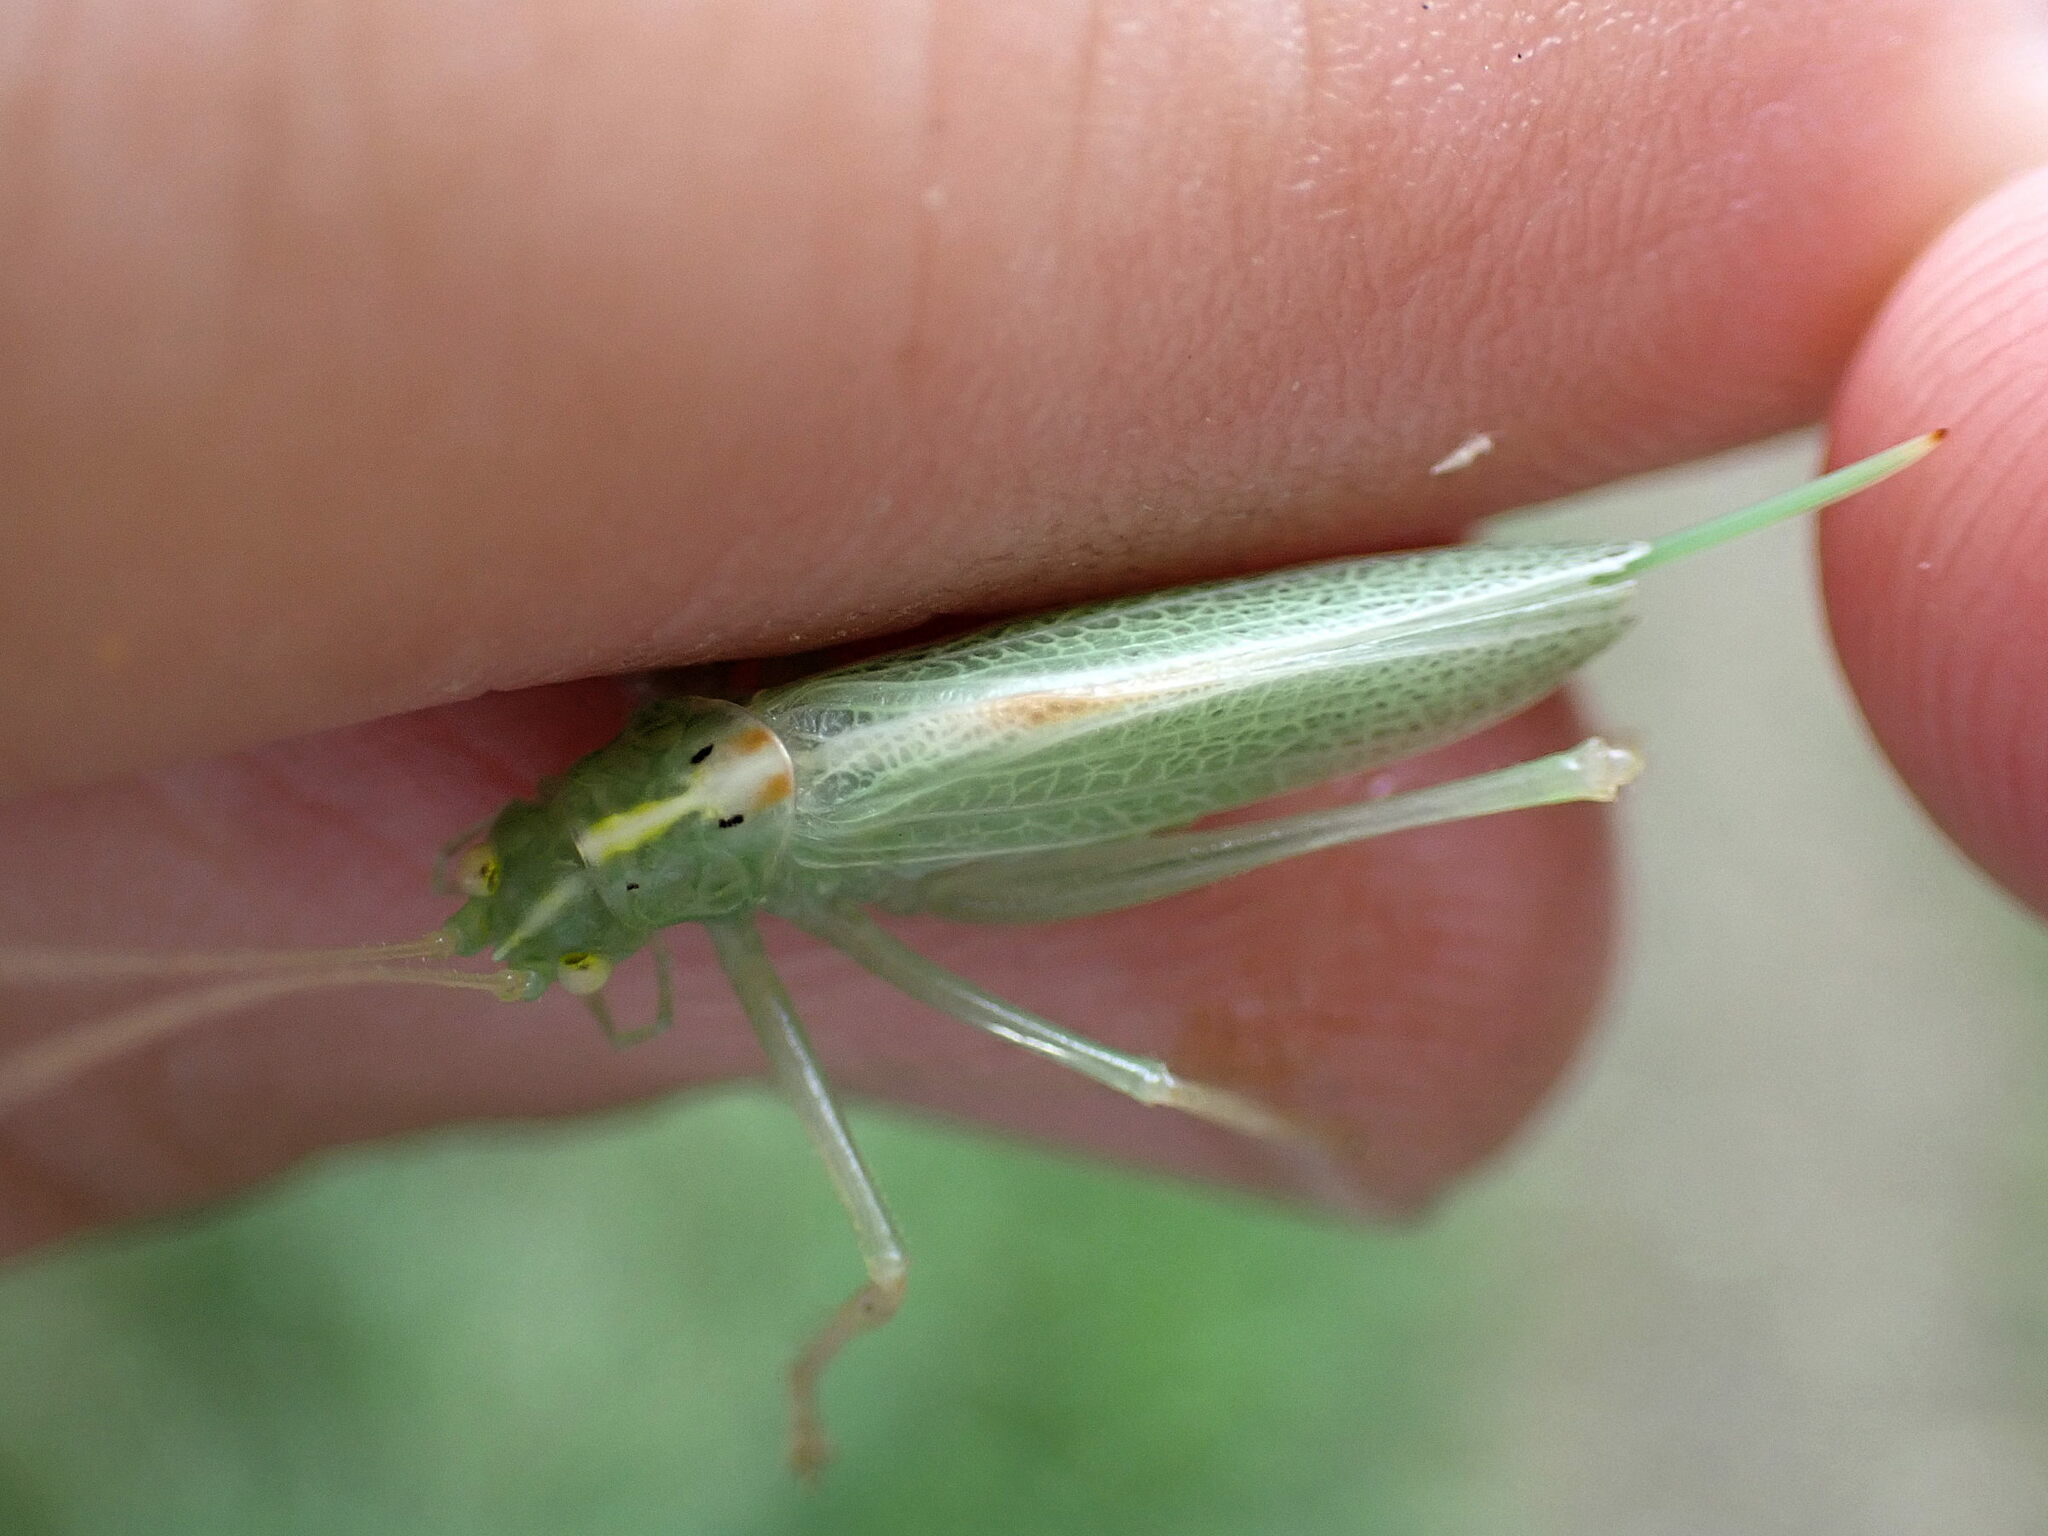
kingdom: Animalia
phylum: Arthropoda
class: Insecta
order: Orthoptera
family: Tettigoniidae
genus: Meconema
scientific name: Meconema thalassinum
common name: Oak bush-cricket
